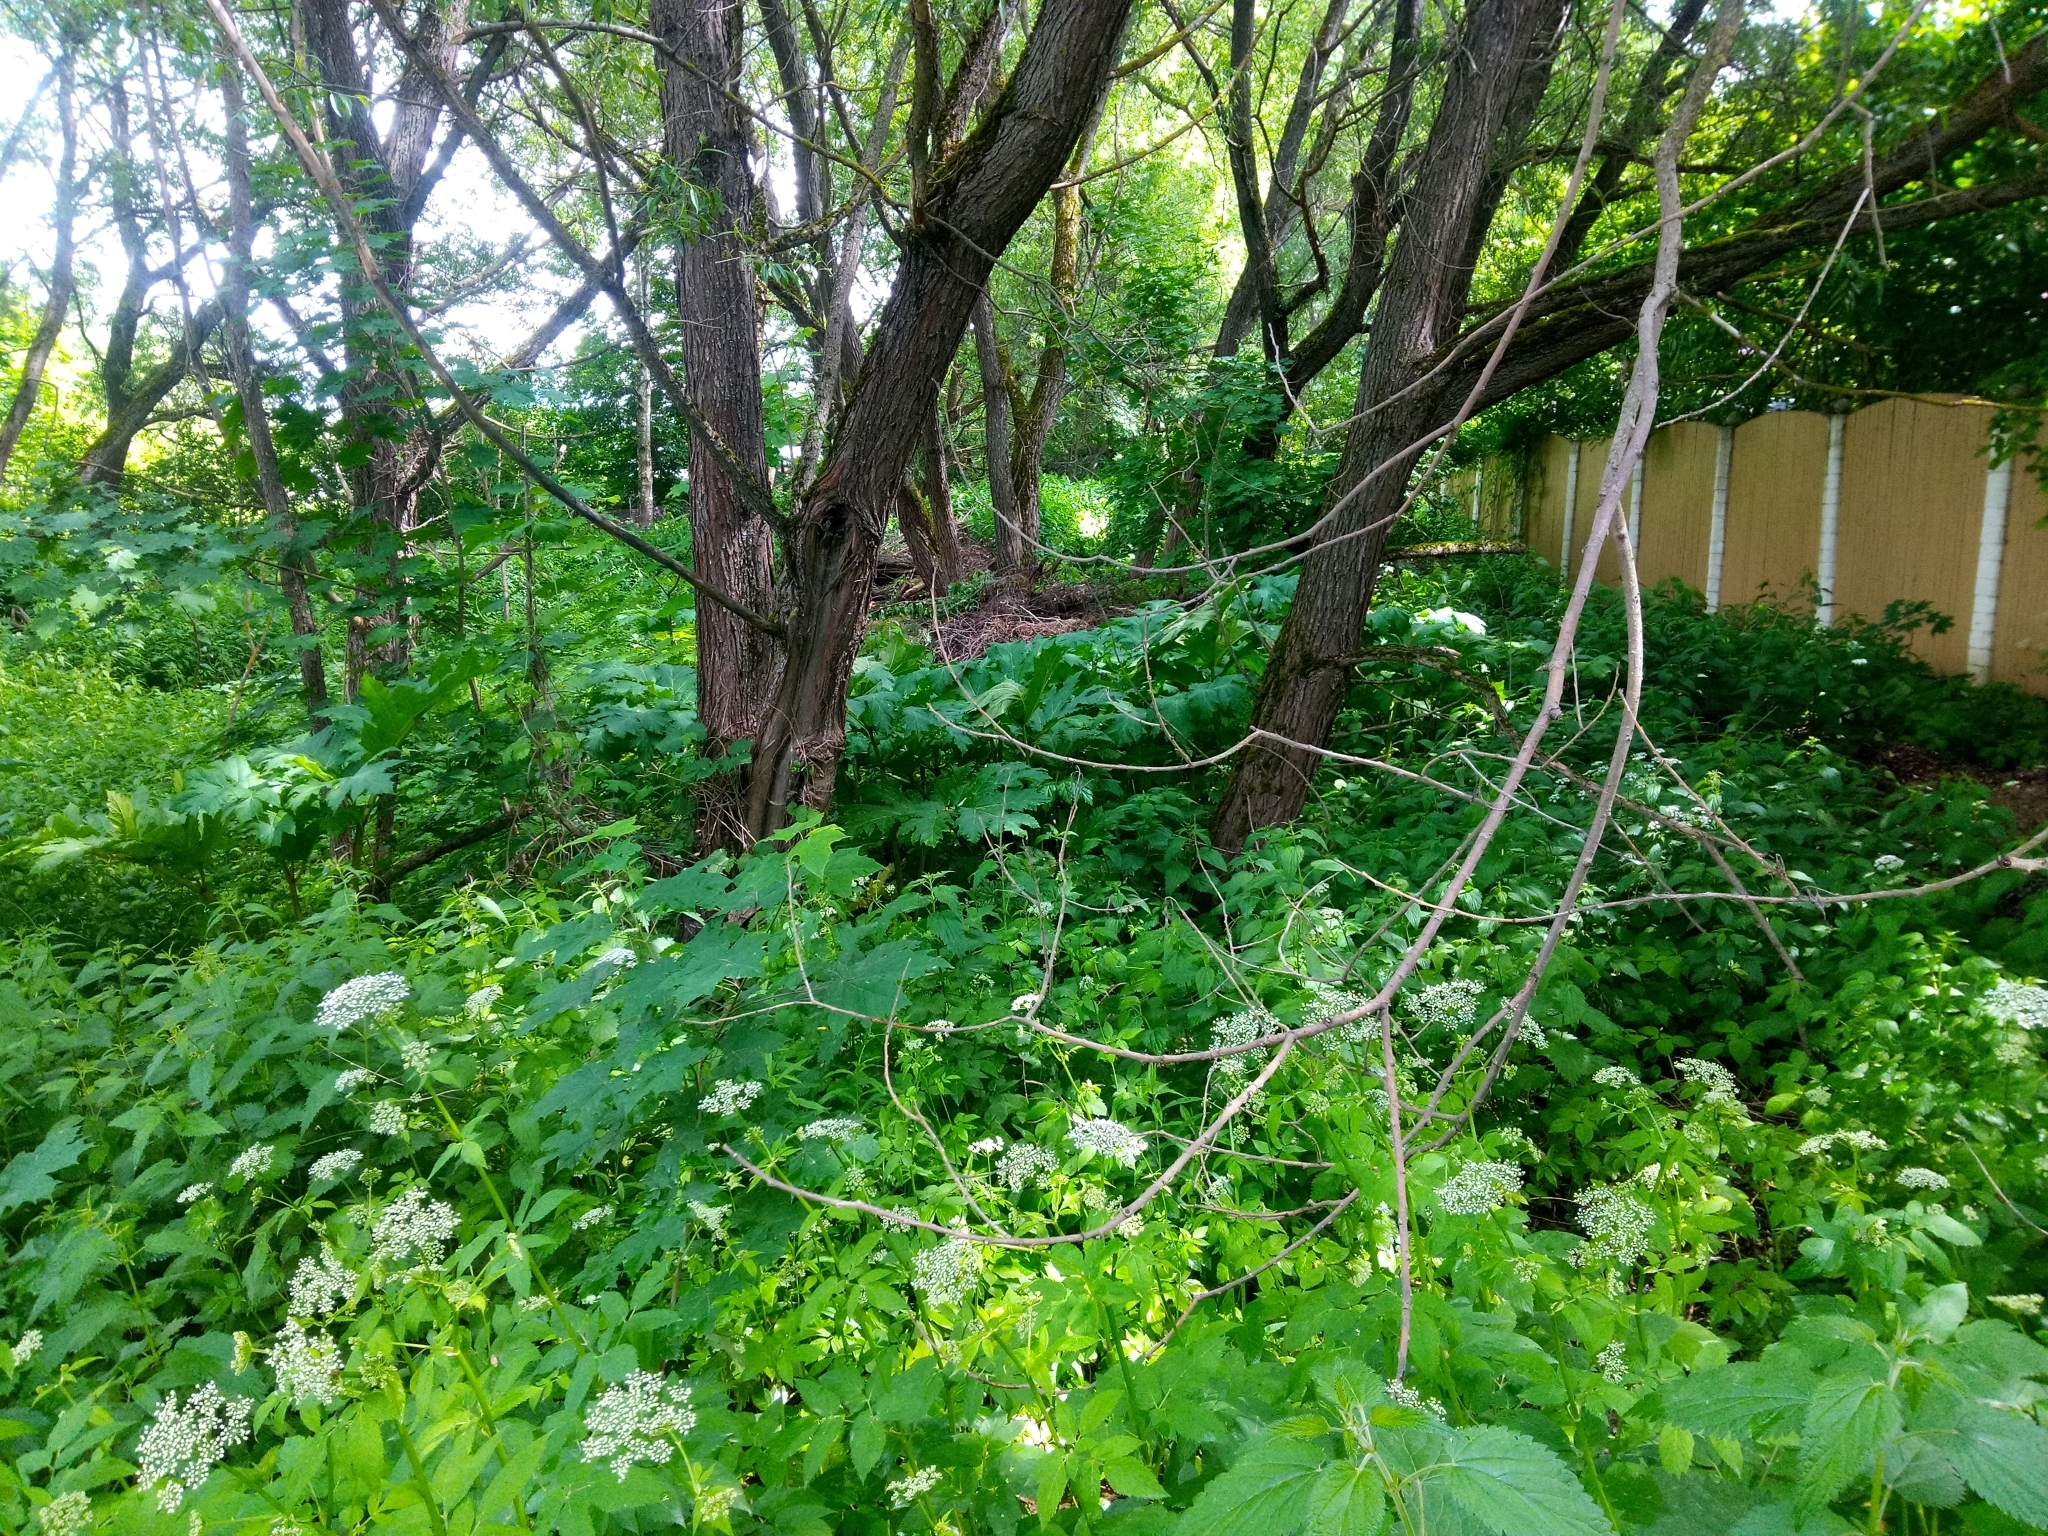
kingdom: Plantae
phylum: Tracheophyta
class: Magnoliopsida
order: Apiales
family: Apiaceae
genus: Heracleum
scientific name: Heracleum sosnowskyi
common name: Sosnowsky's hogweed
